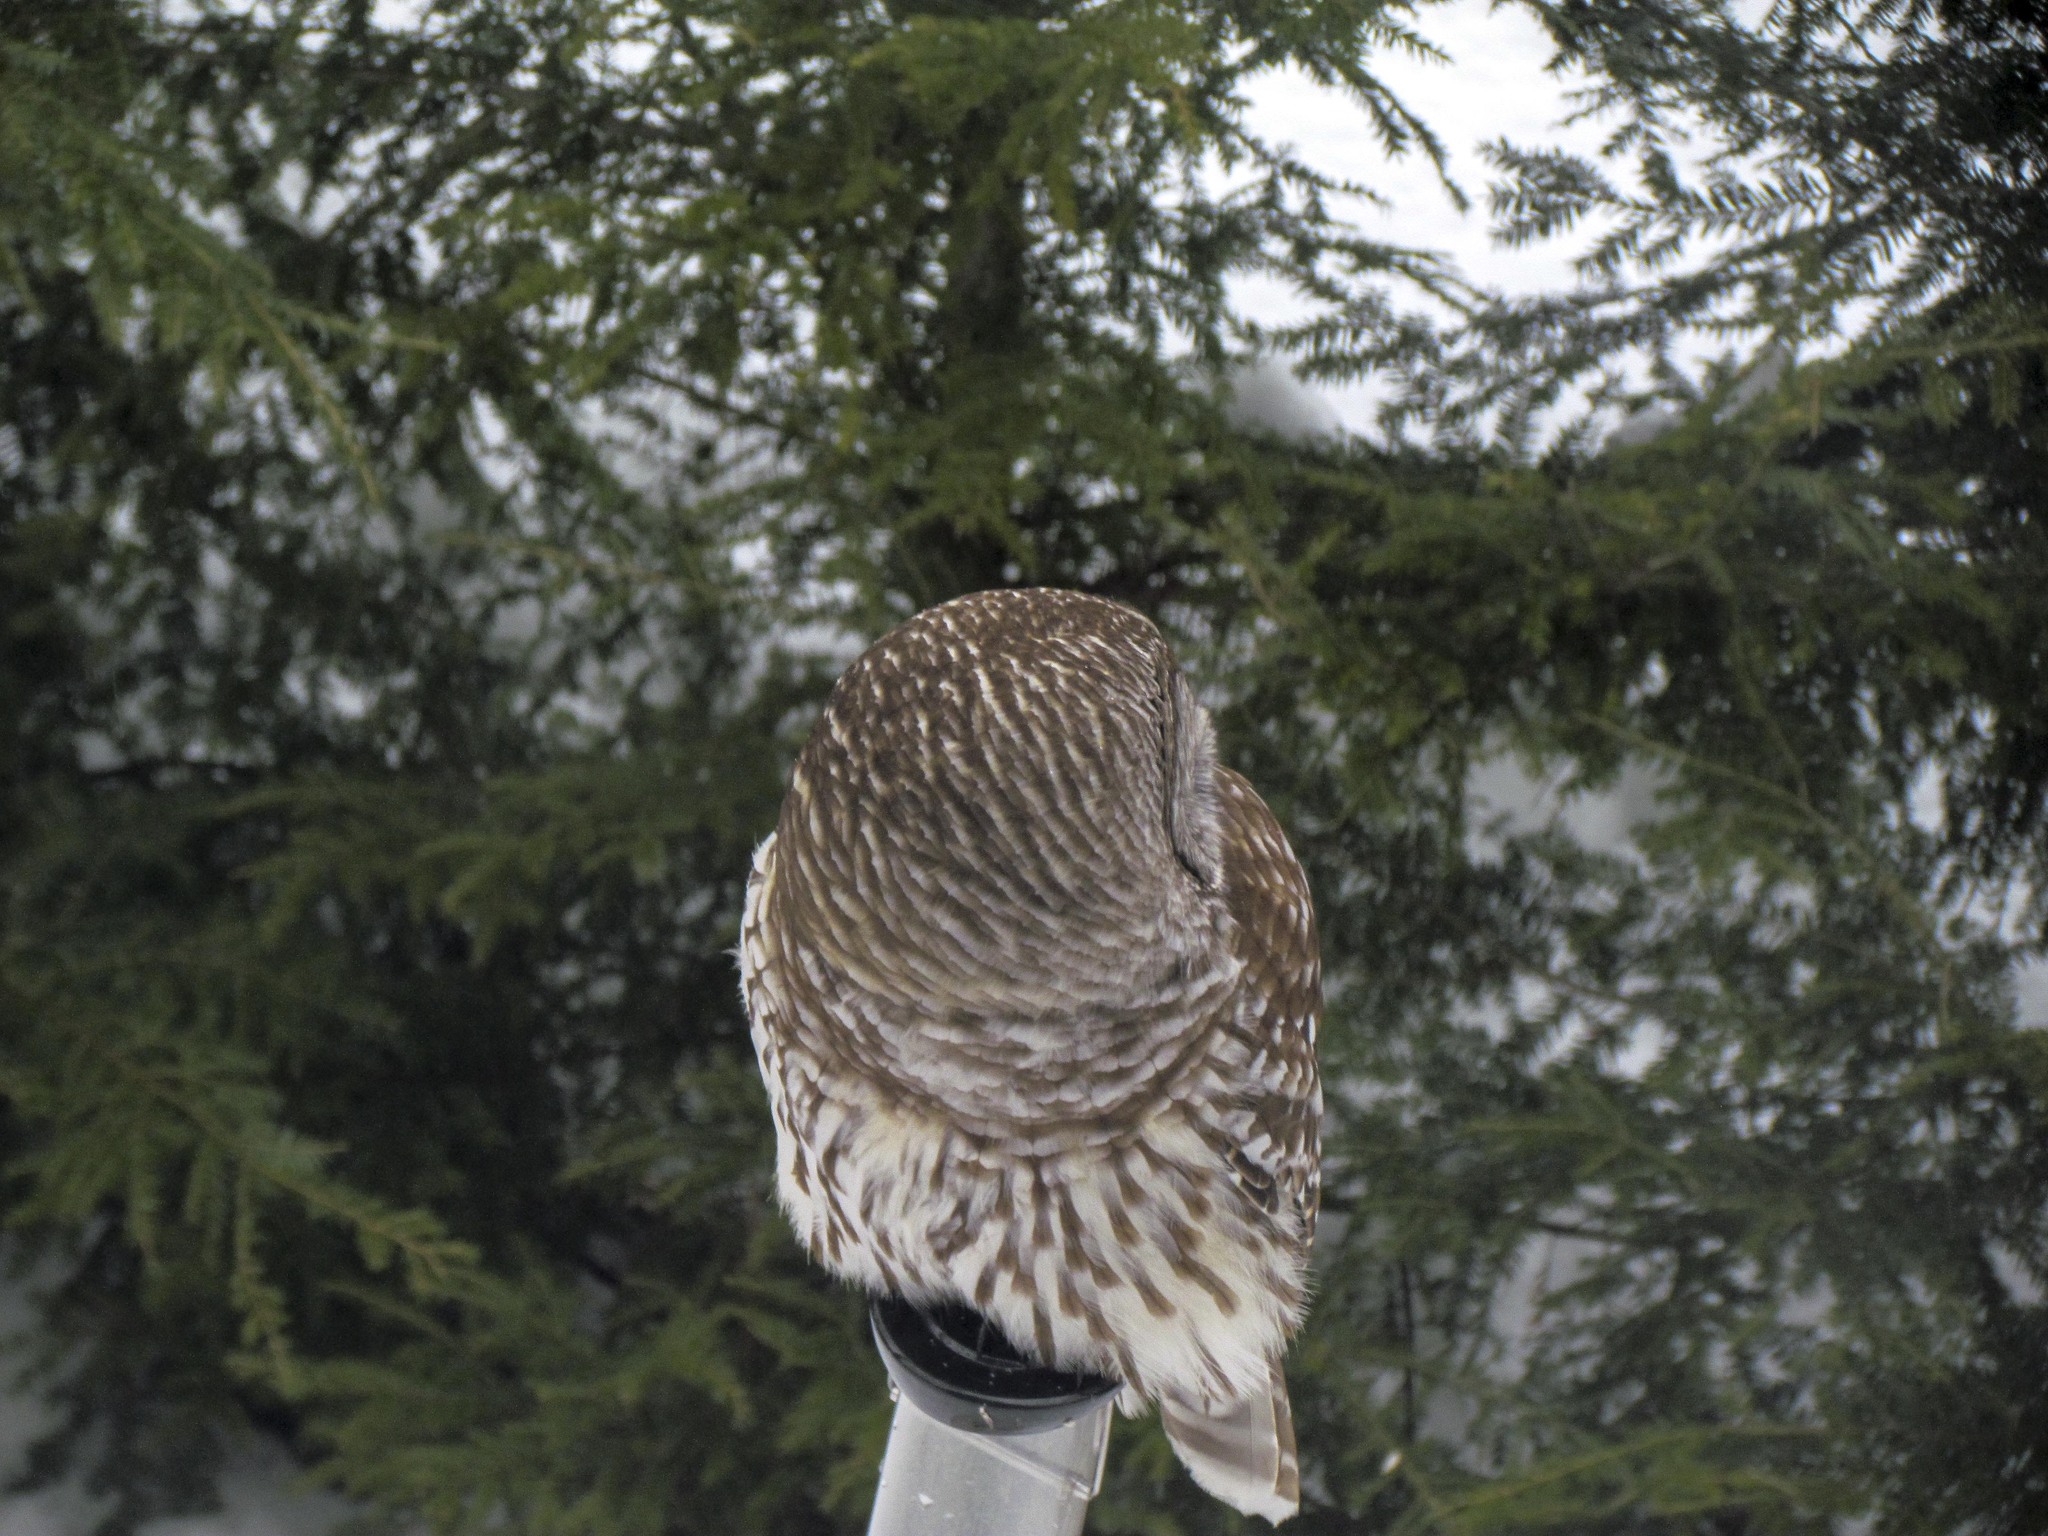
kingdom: Animalia
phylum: Chordata
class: Aves
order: Strigiformes
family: Strigidae
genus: Strix
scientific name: Strix varia
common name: Barred owl
